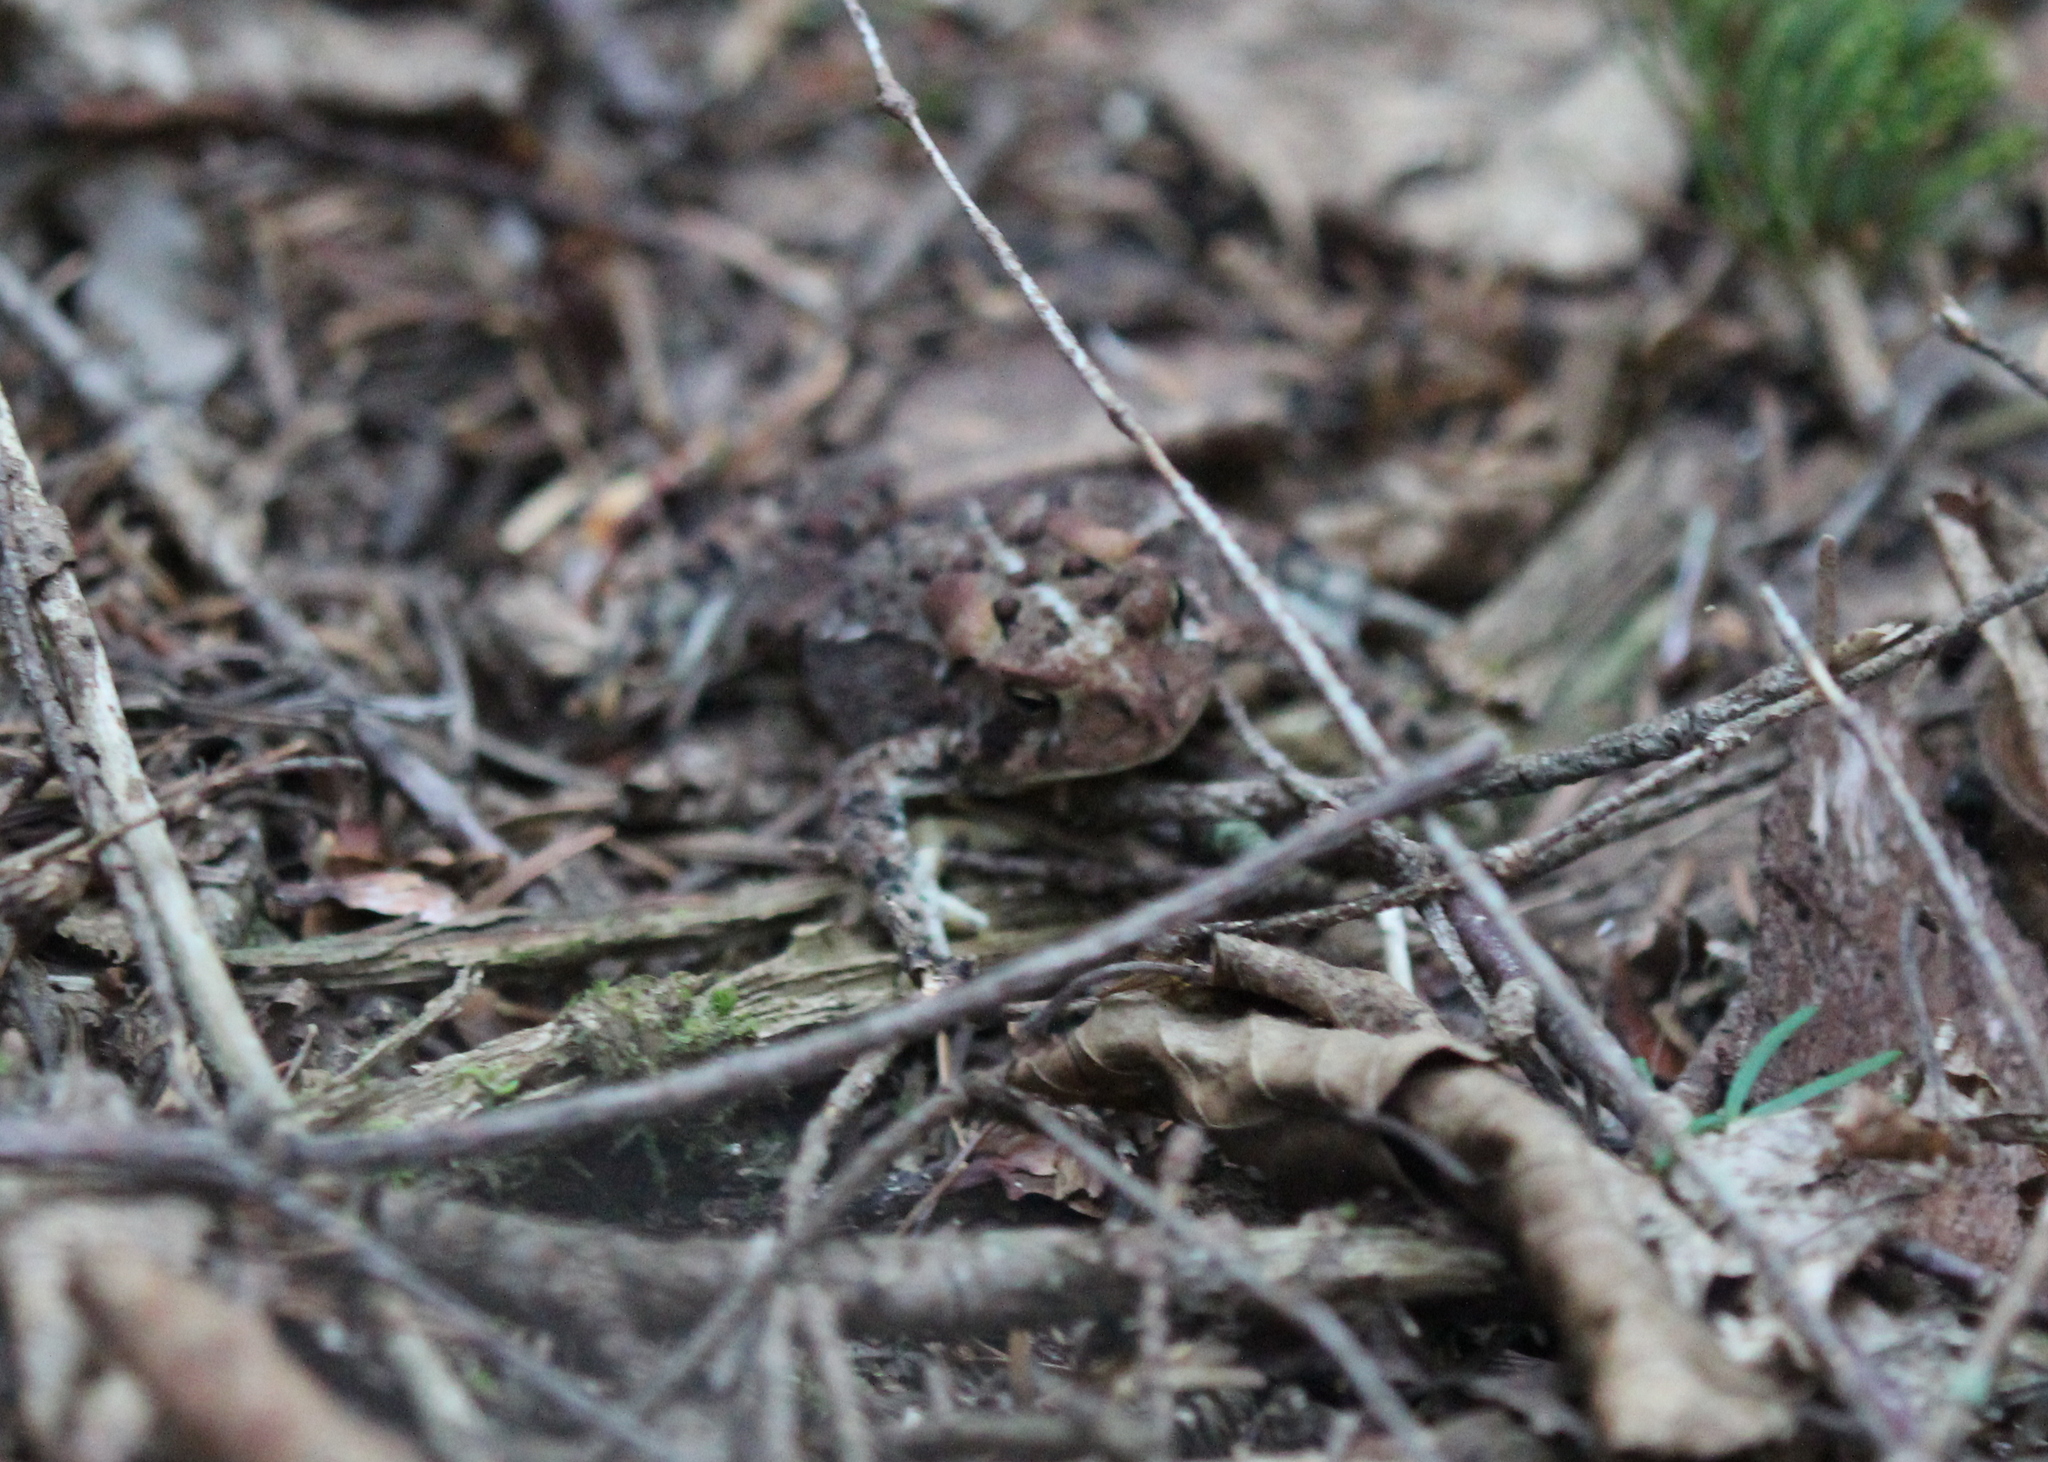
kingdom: Animalia
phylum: Chordata
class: Amphibia
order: Anura
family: Bufonidae
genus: Anaxyrus
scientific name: Anaxyrus americanus
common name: American toad
